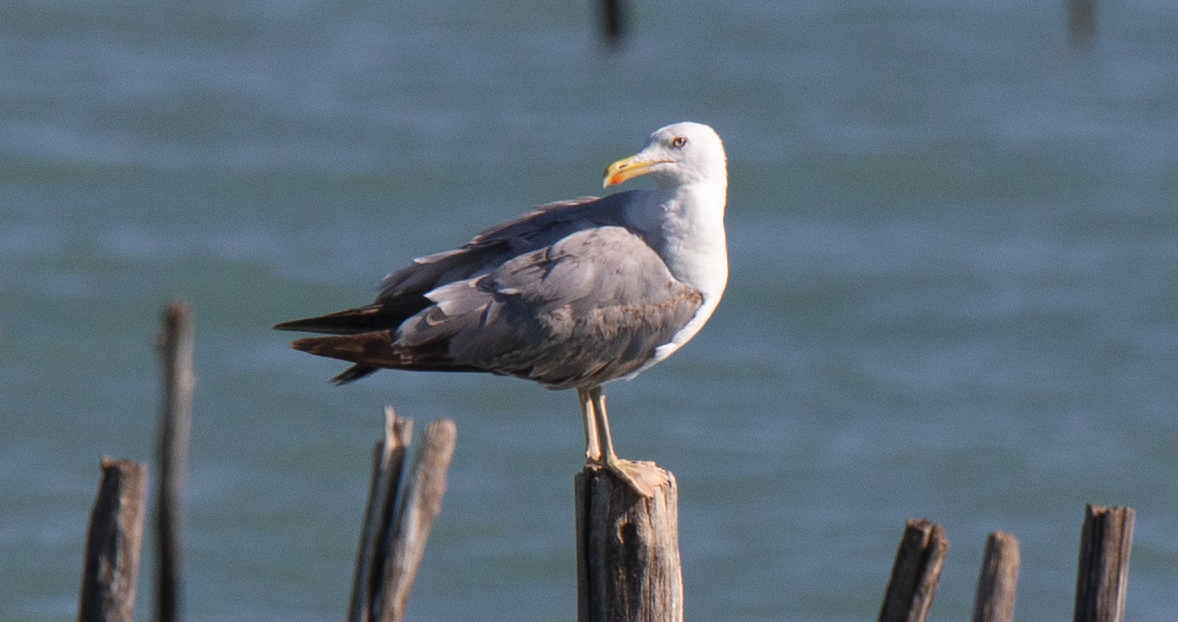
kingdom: Animalia
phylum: Chordata
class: Aves
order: Charadriiformes
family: Laridae
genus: Larus
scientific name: Larus michahellis
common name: Yellow-legged gull
